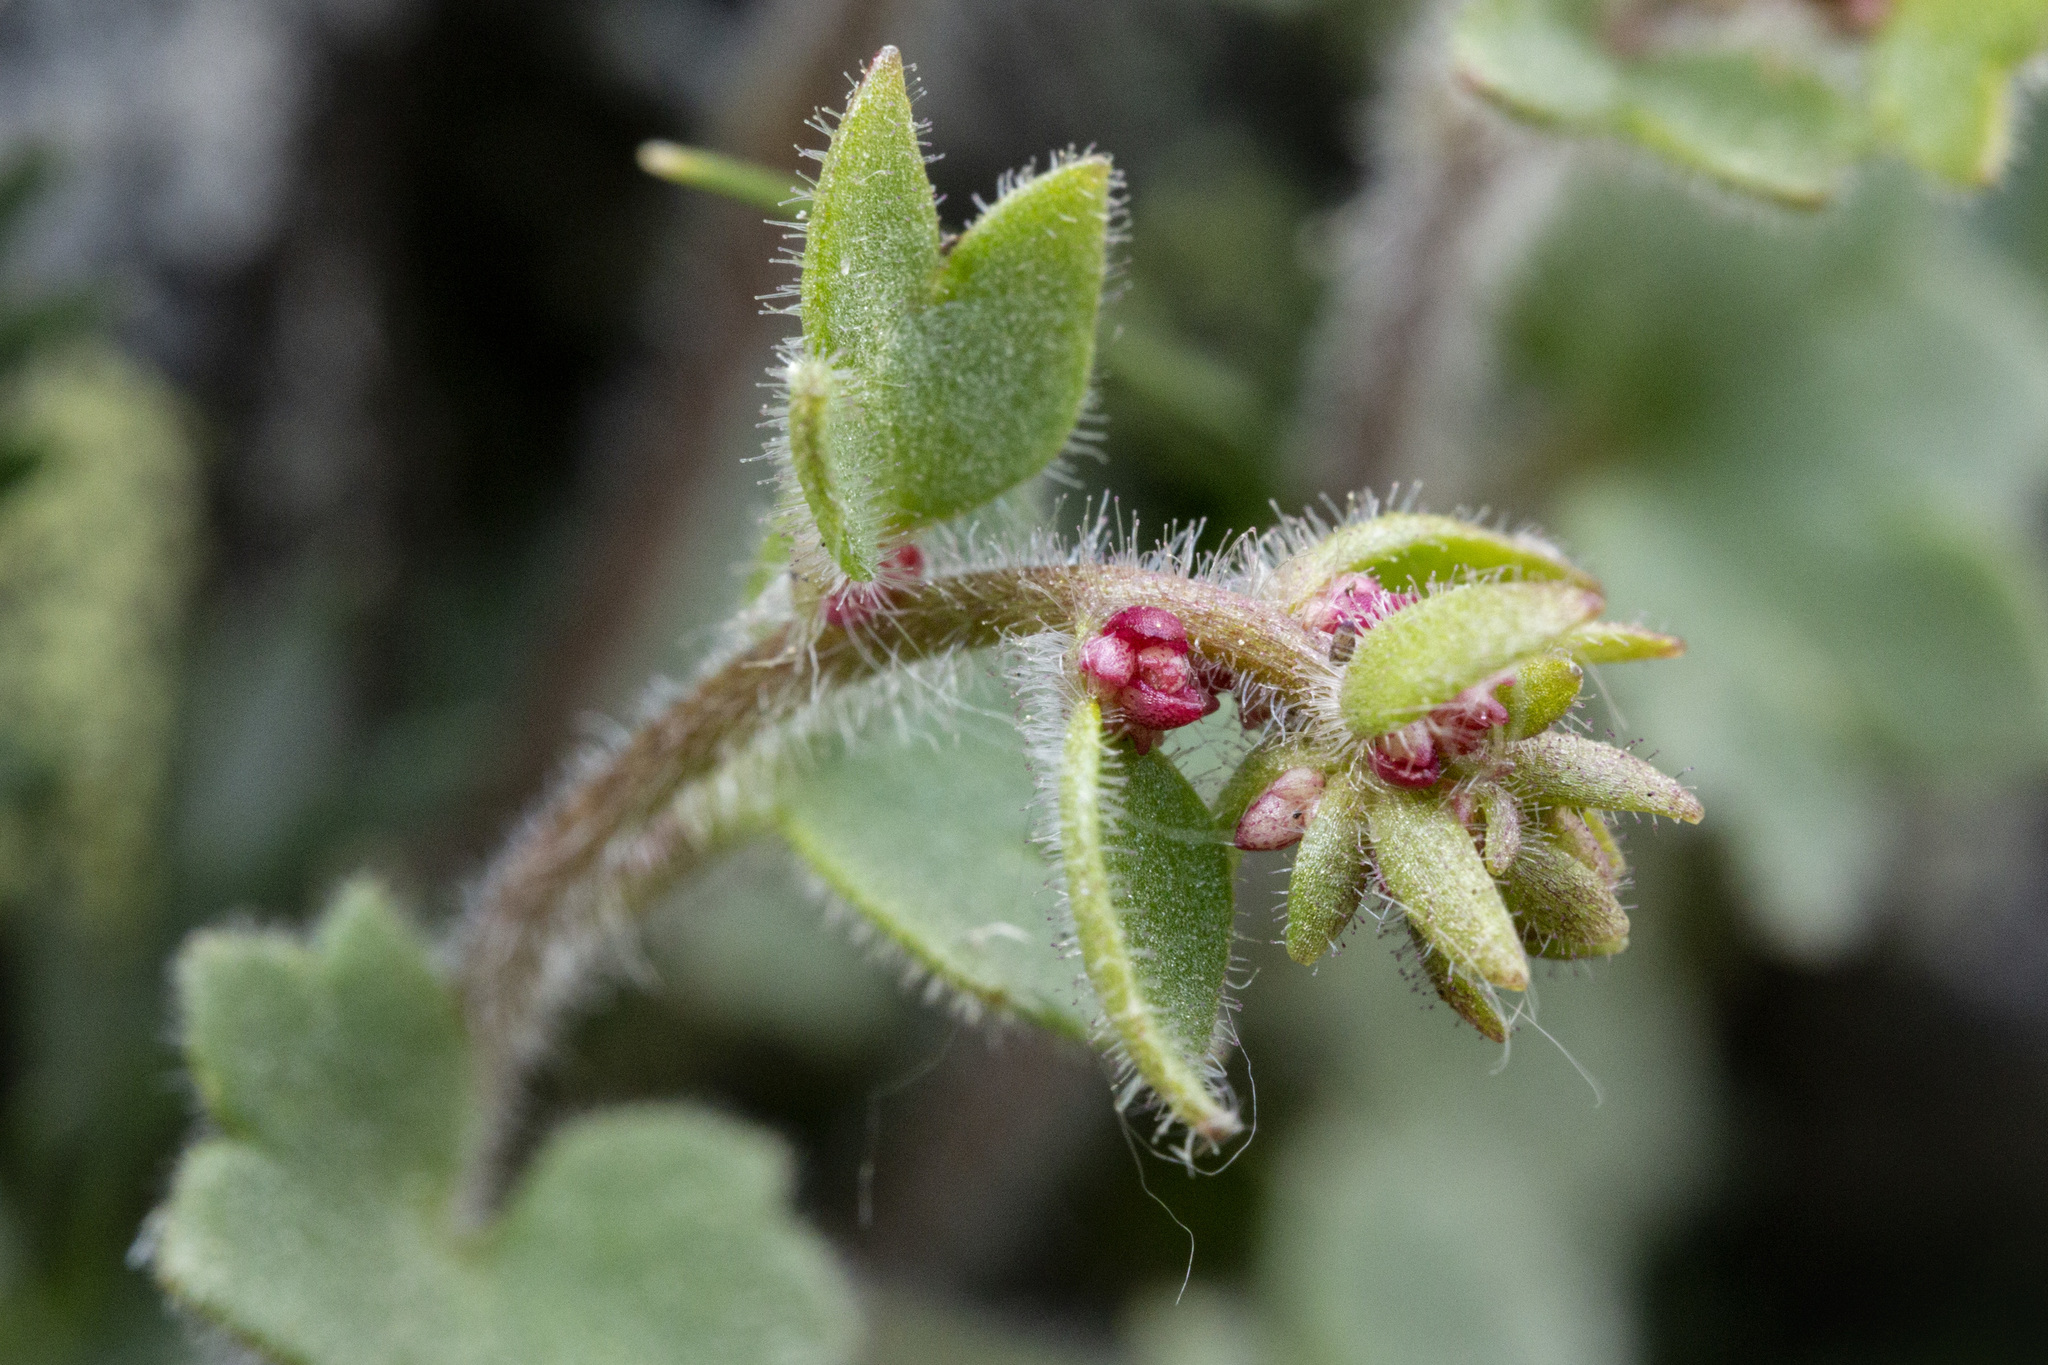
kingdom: Plantae
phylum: Tracheophyta
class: Magnoliopsida
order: Saxifragales
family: Saxifragaceae
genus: Saxifraga
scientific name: Saxifraga cernua
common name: Drooping saxifrage
